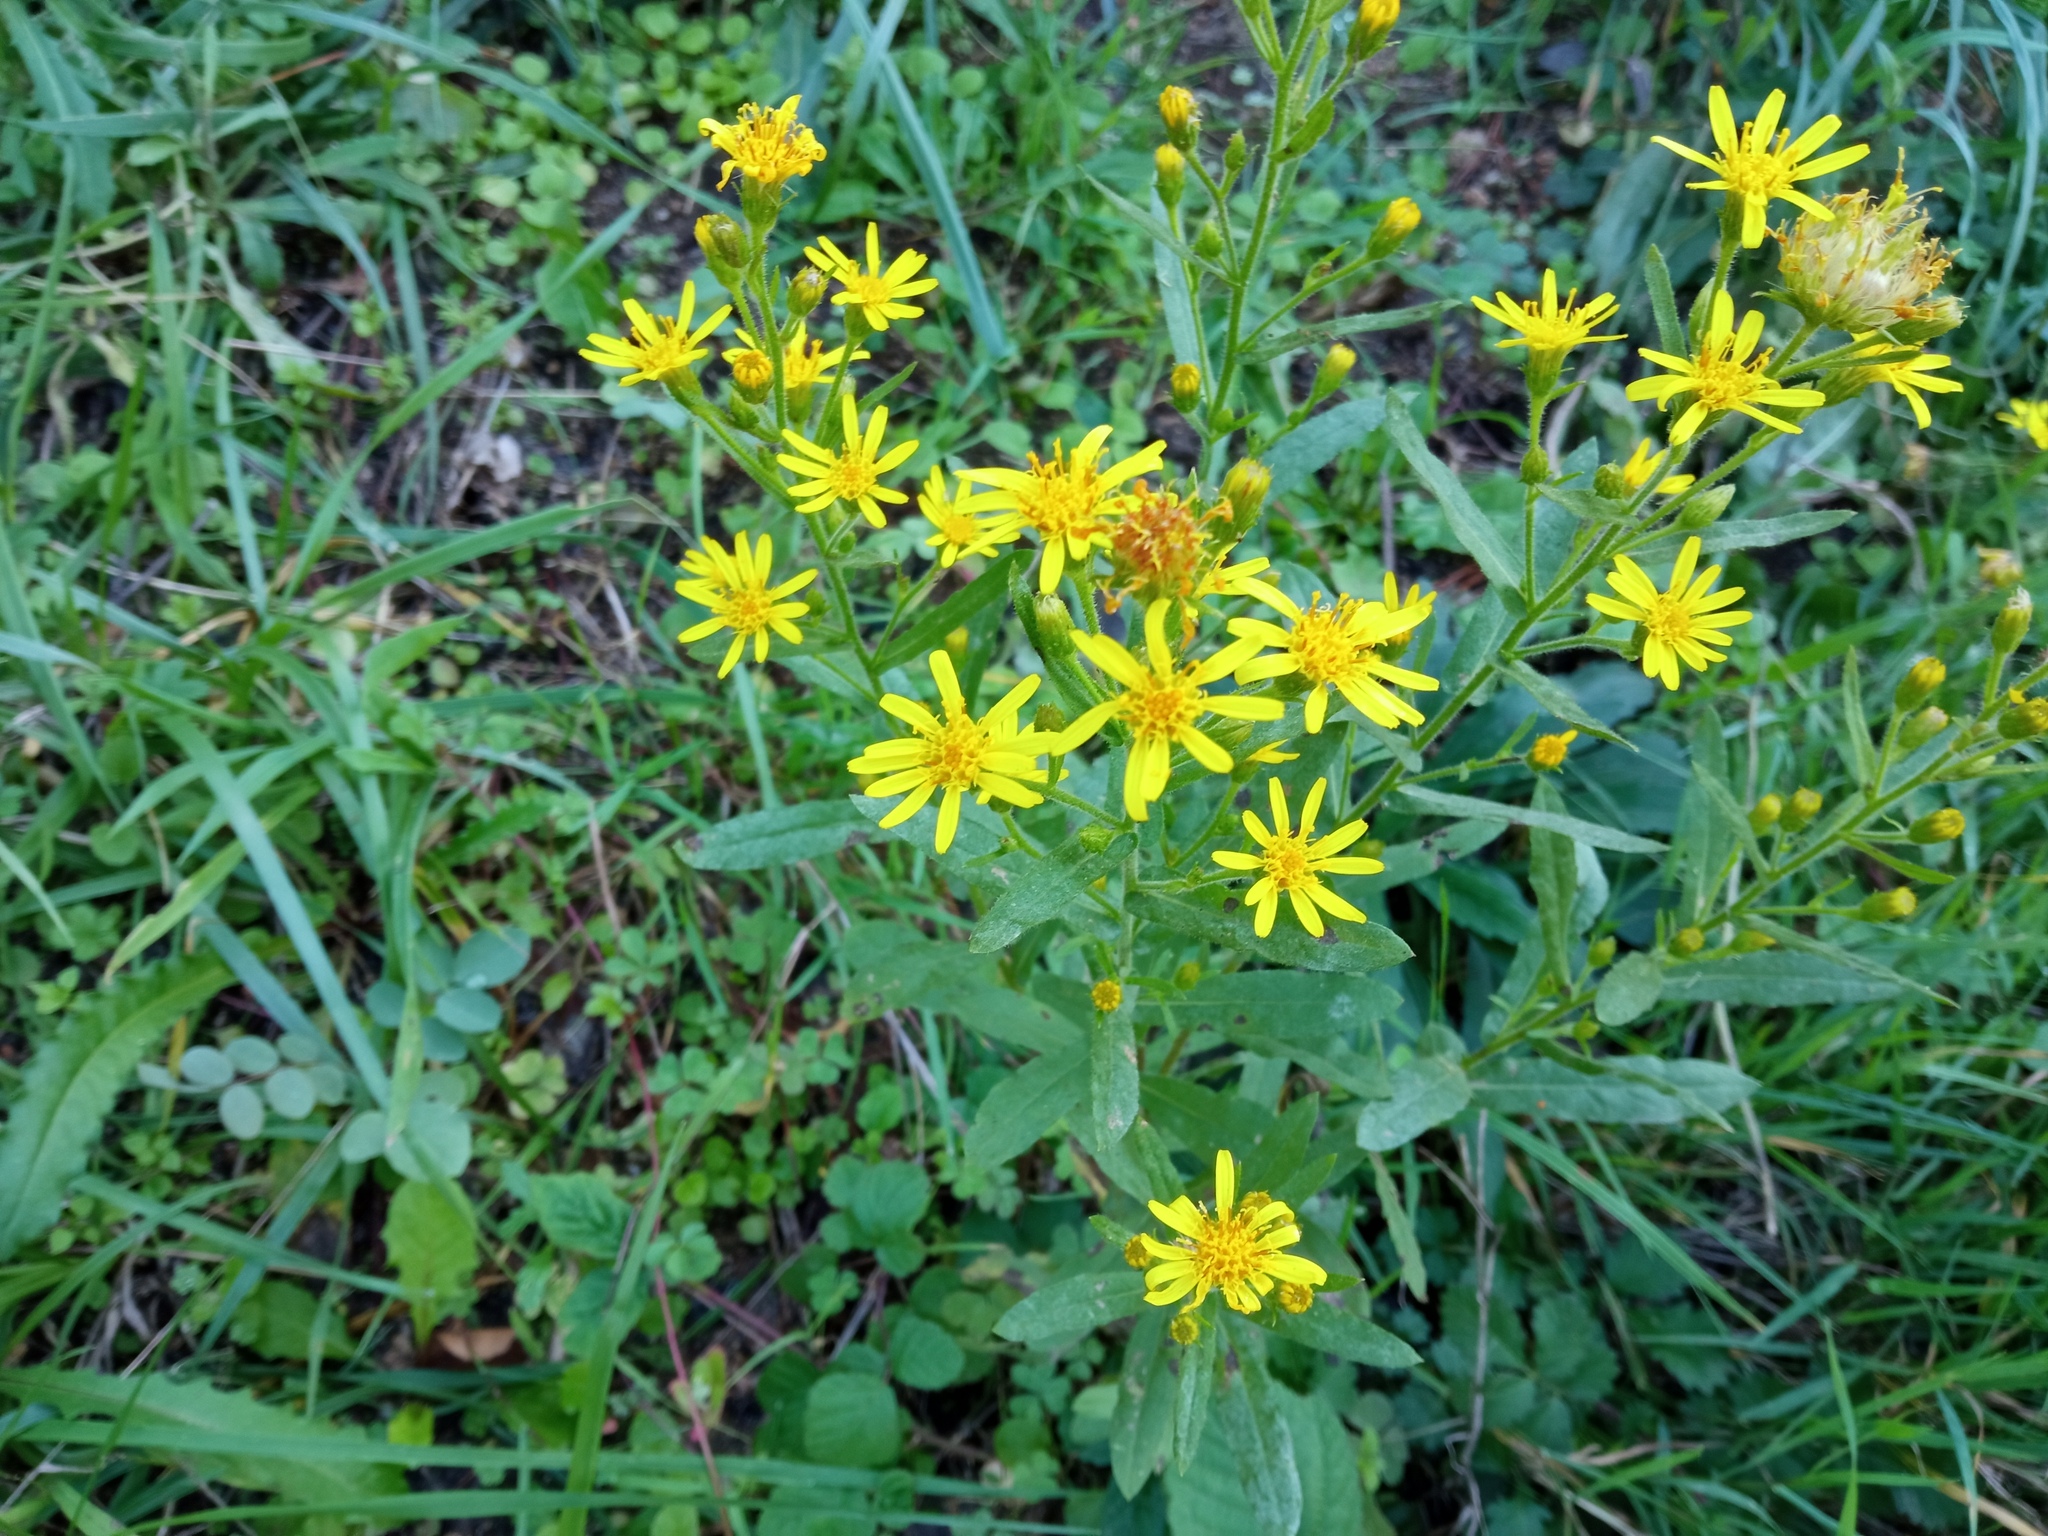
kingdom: Plantae
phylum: Tracheophyta
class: Magnoliopsida
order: Asterales
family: Asteraceae
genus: Dittrichia
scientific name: Dittrichia viscosa
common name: Woody fleabane
